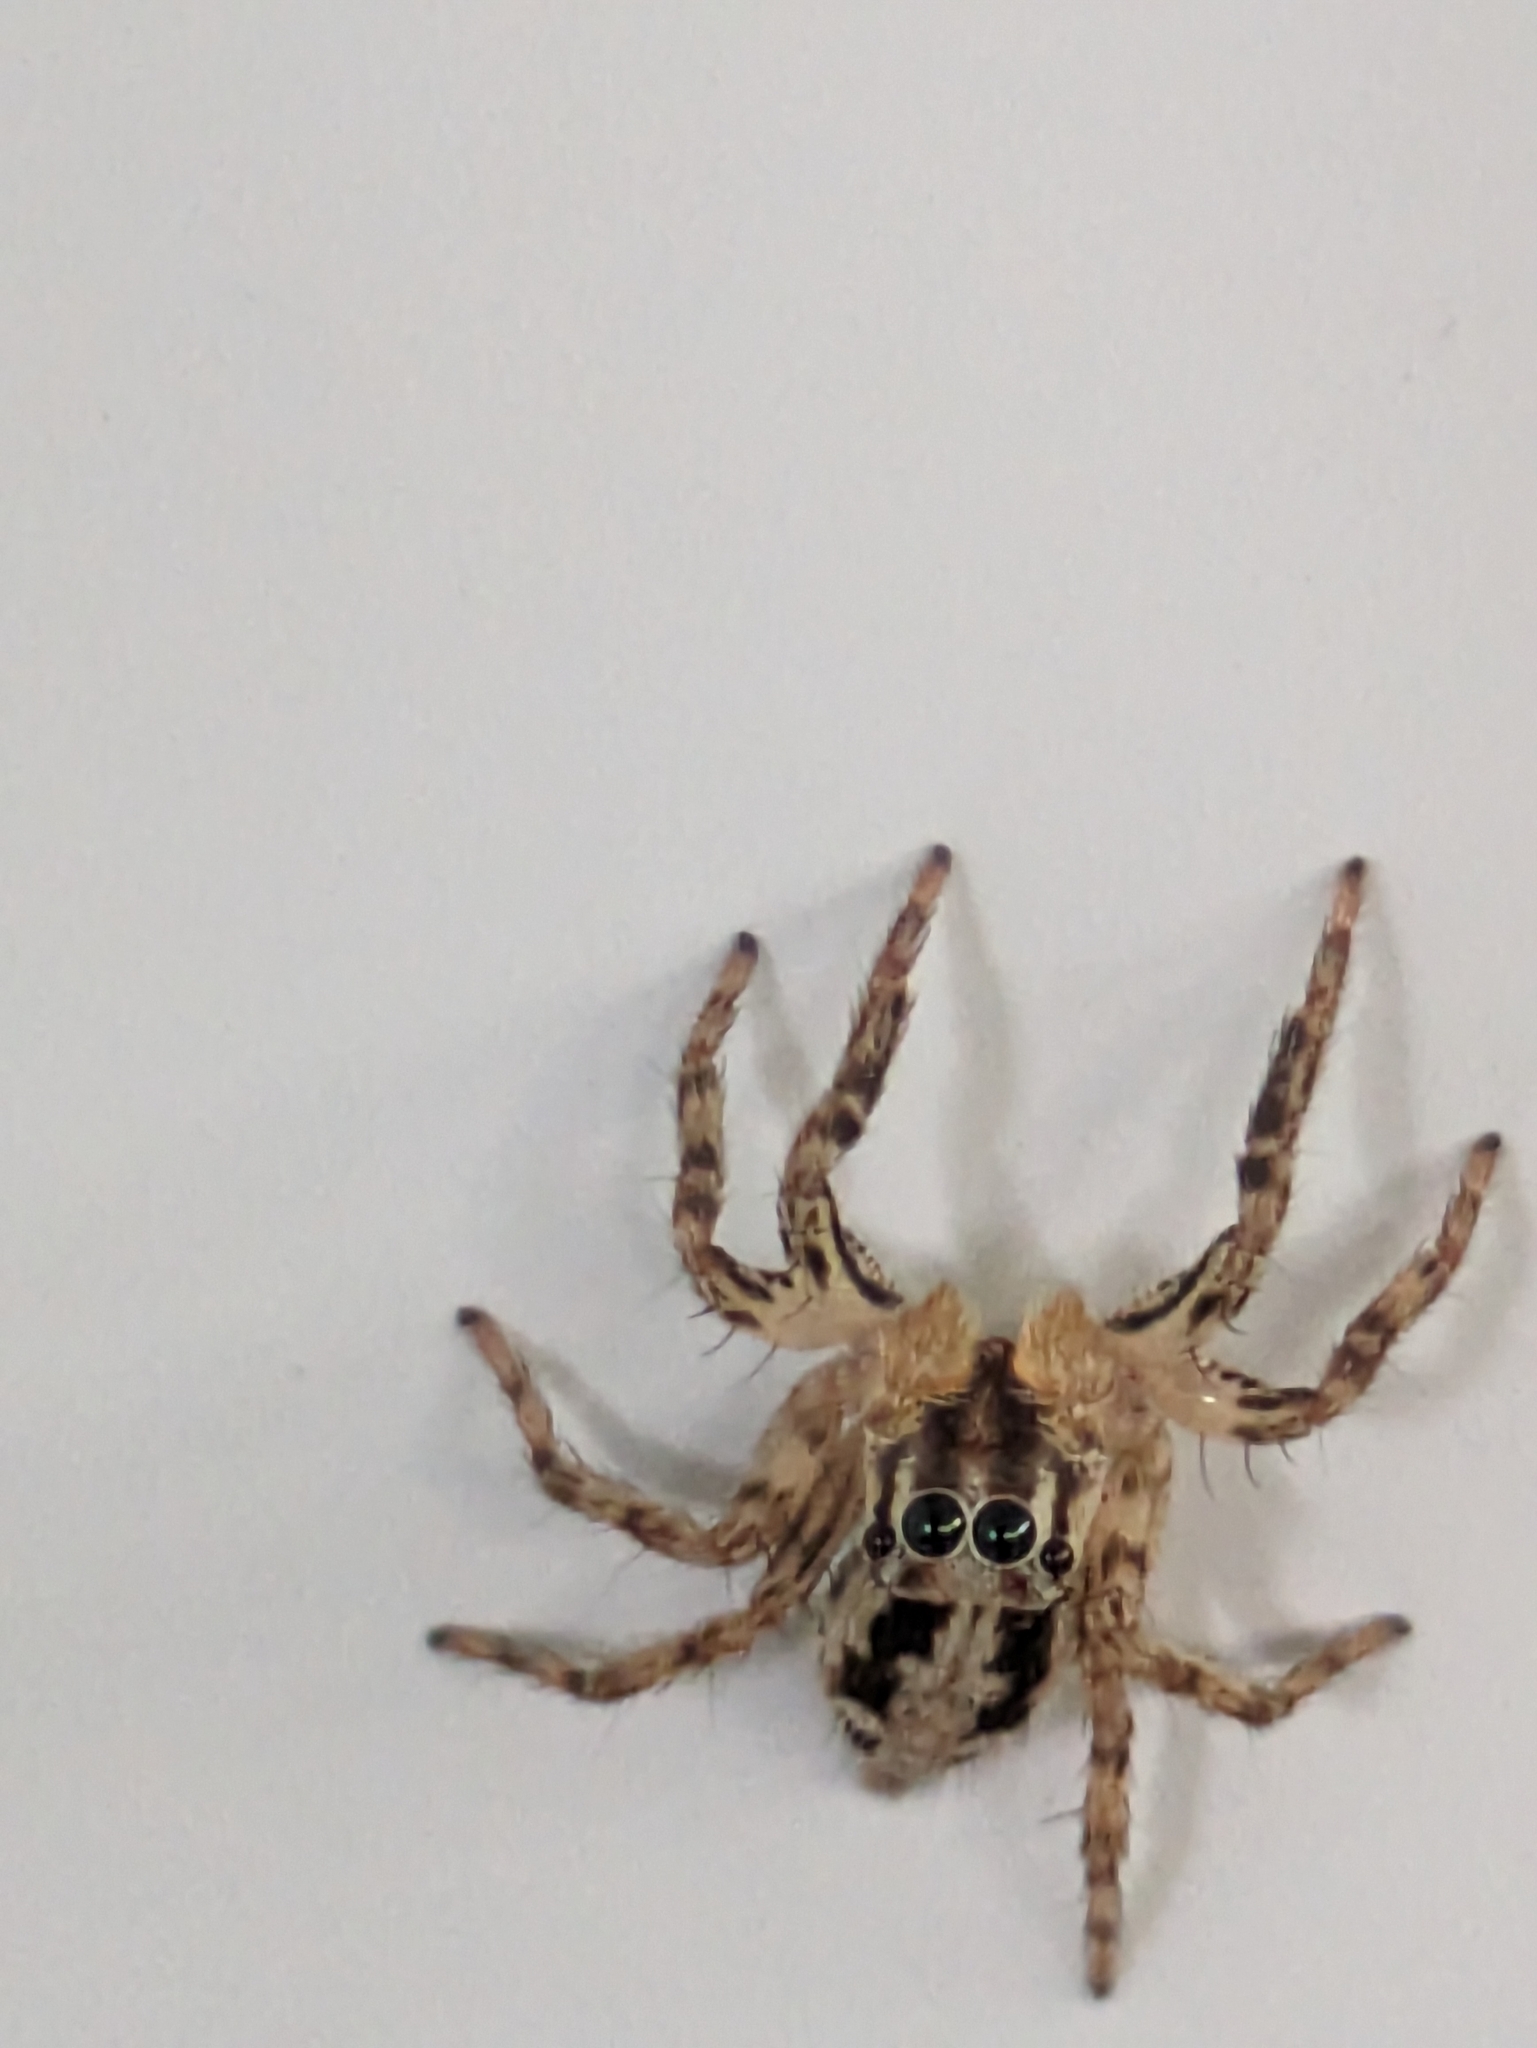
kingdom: Animalia
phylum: Arthropoda
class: Arachnida
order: Araneae
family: Salticidae
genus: Plexippus
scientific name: Plexippus petersi
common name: Jumping spider
